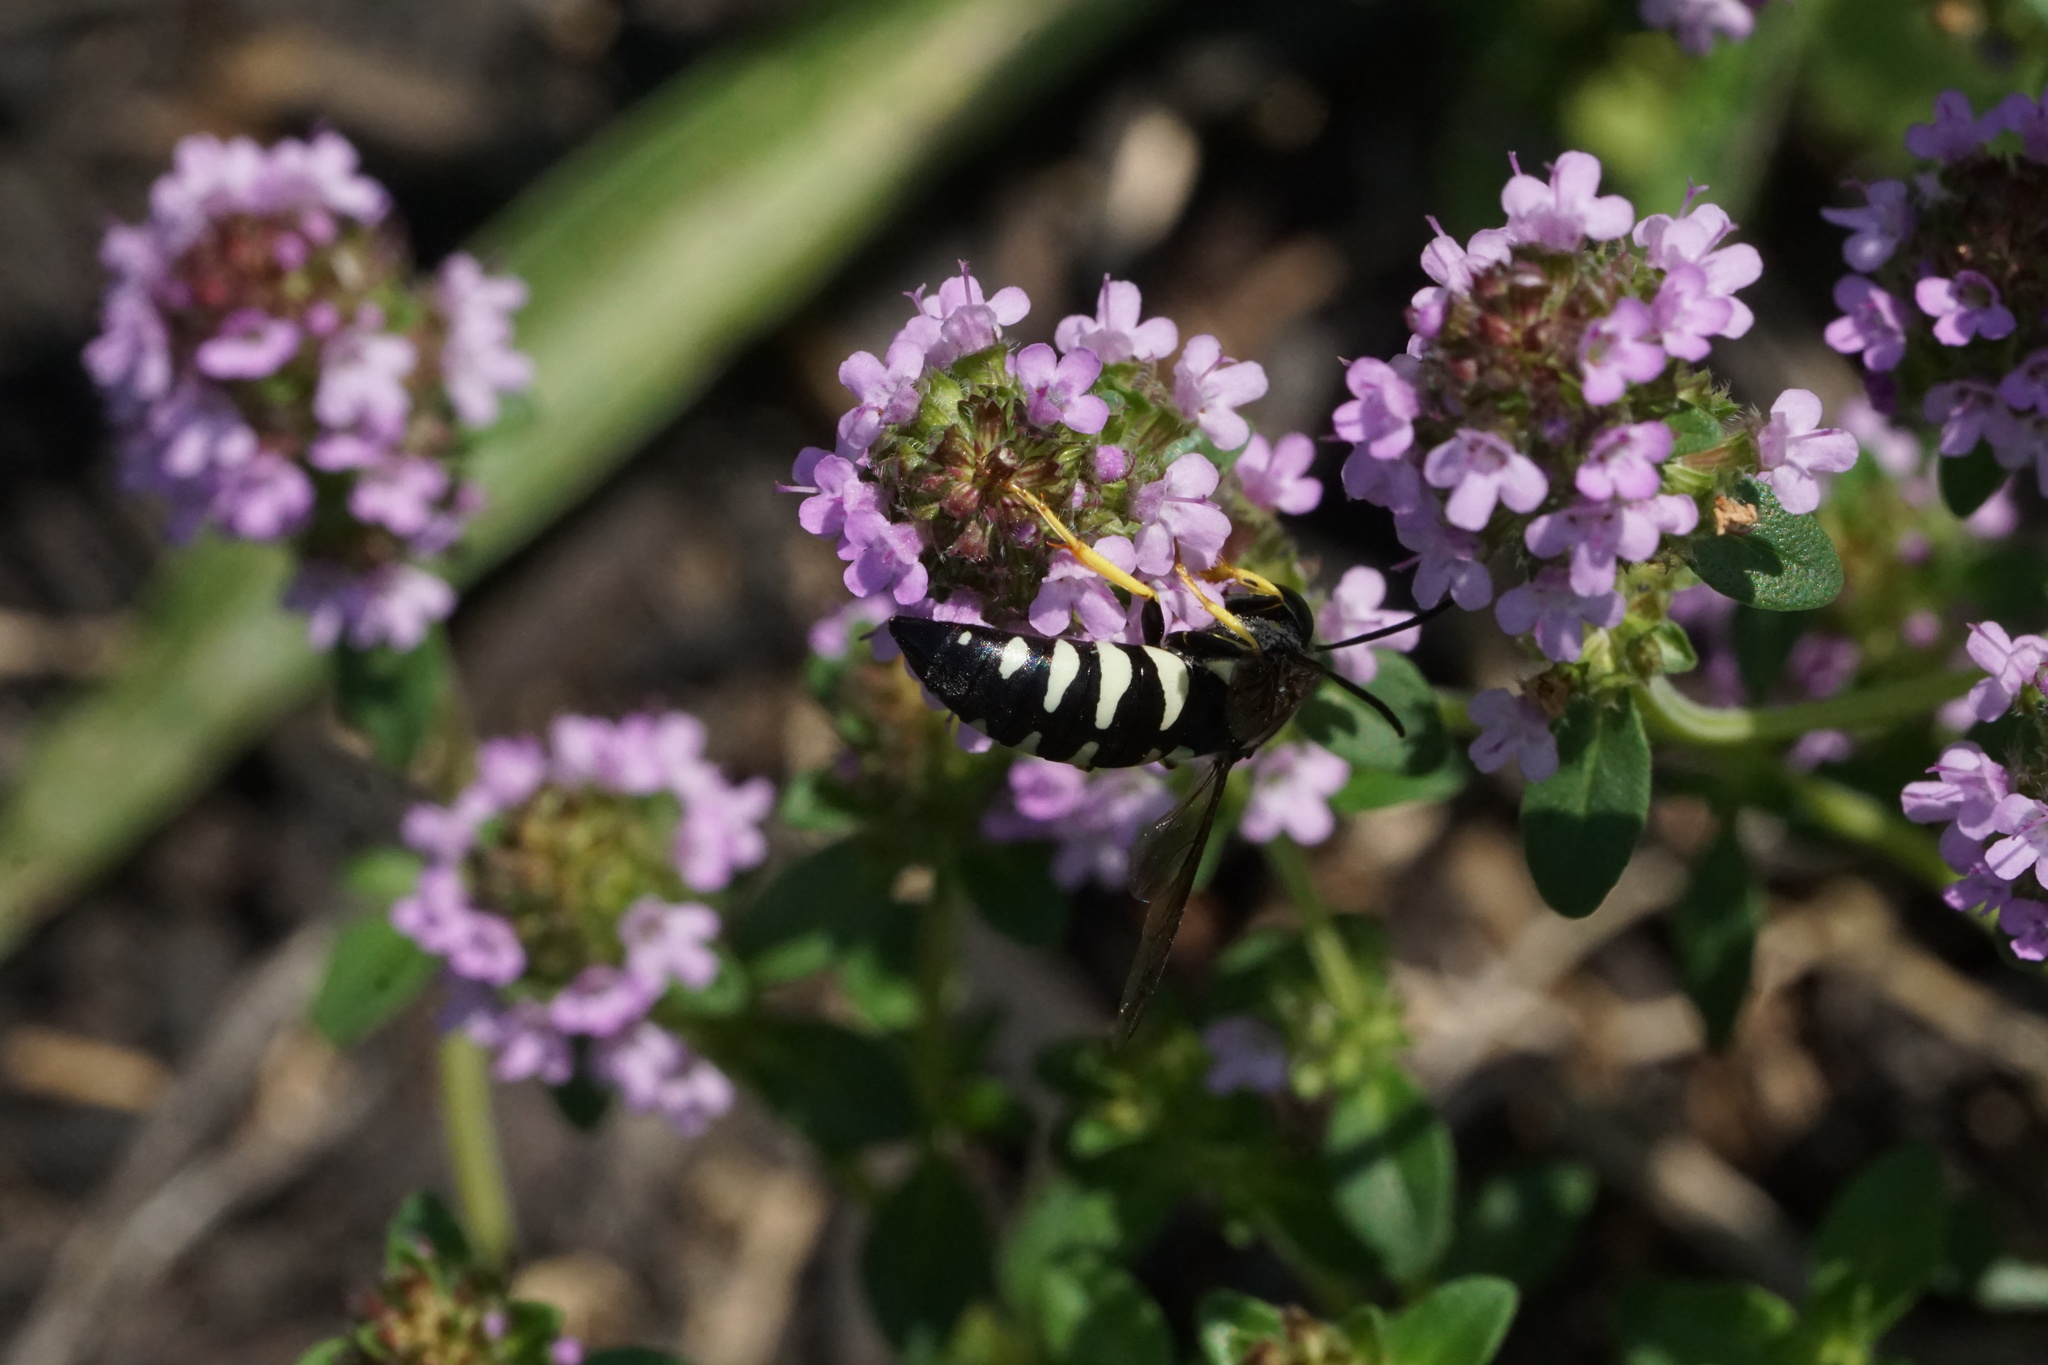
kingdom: Animalia
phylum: Arthropoda
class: Insecta
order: Hymenoptera
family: Crabronidae
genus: Bicyrtes
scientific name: Bicyrtes quadrifasciatus
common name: Four-banded stink bug hunter wasp
